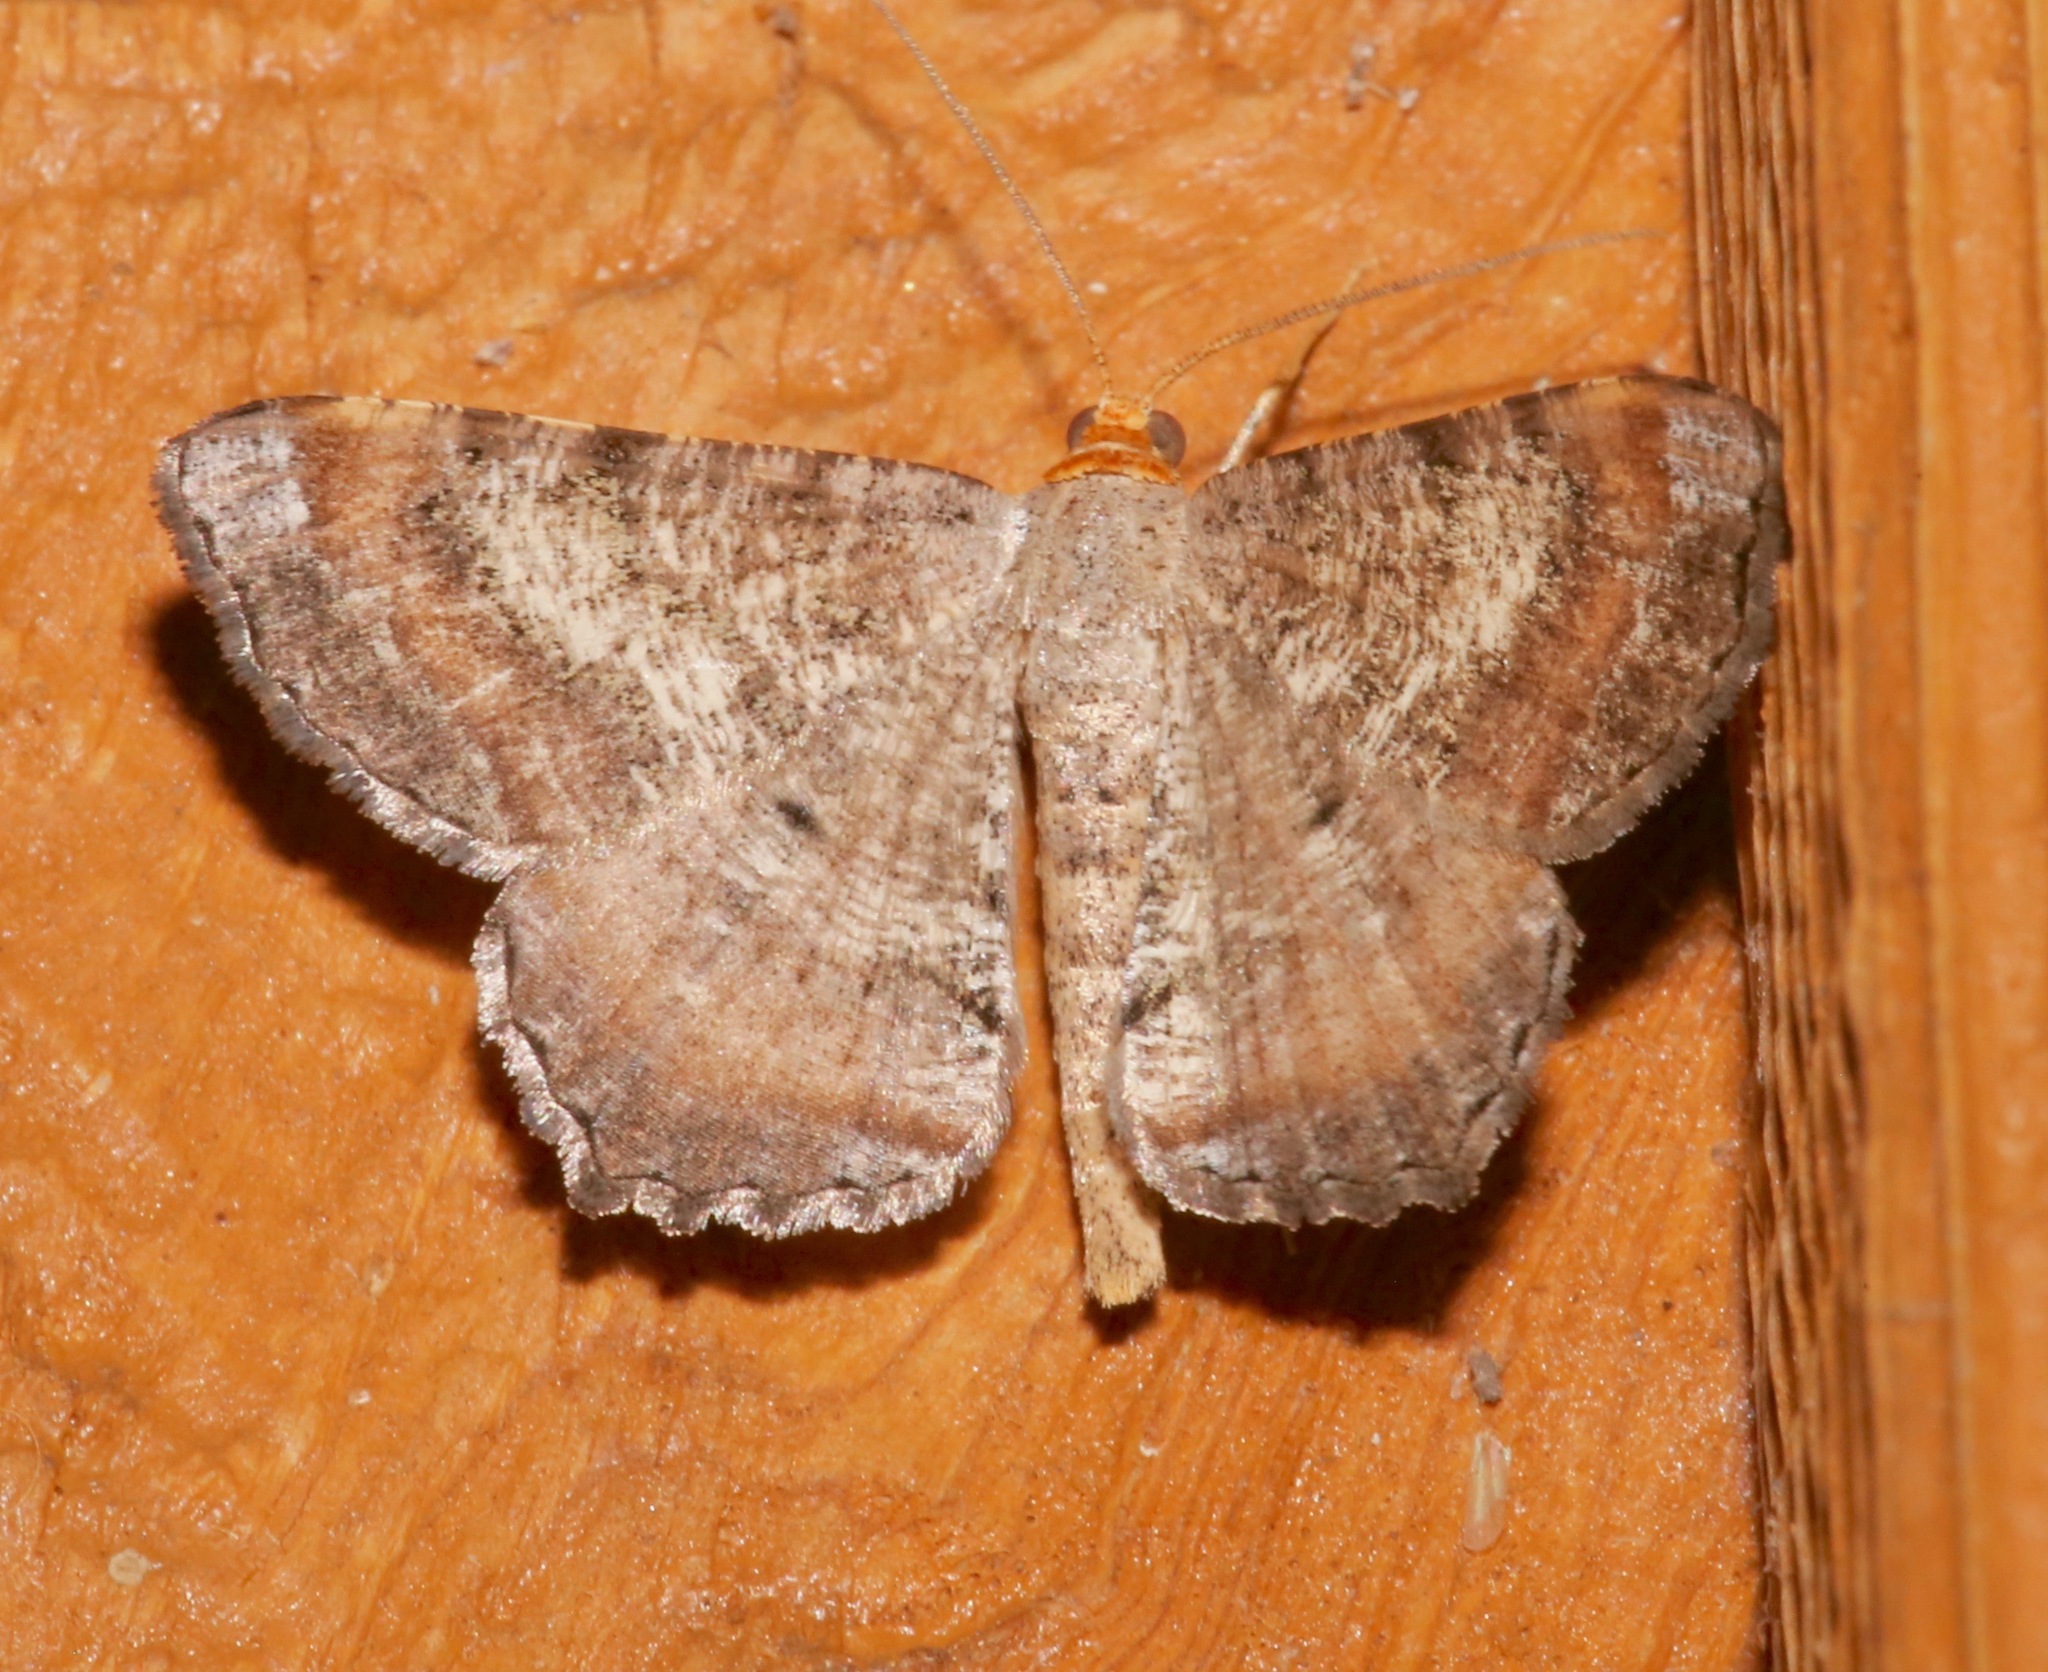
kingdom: Animalia
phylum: Arthropoda
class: Insecta
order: Lepidoptera
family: Erebidae
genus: Pangrapta
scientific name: Pangrapta decoralis
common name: Decorated owlet
